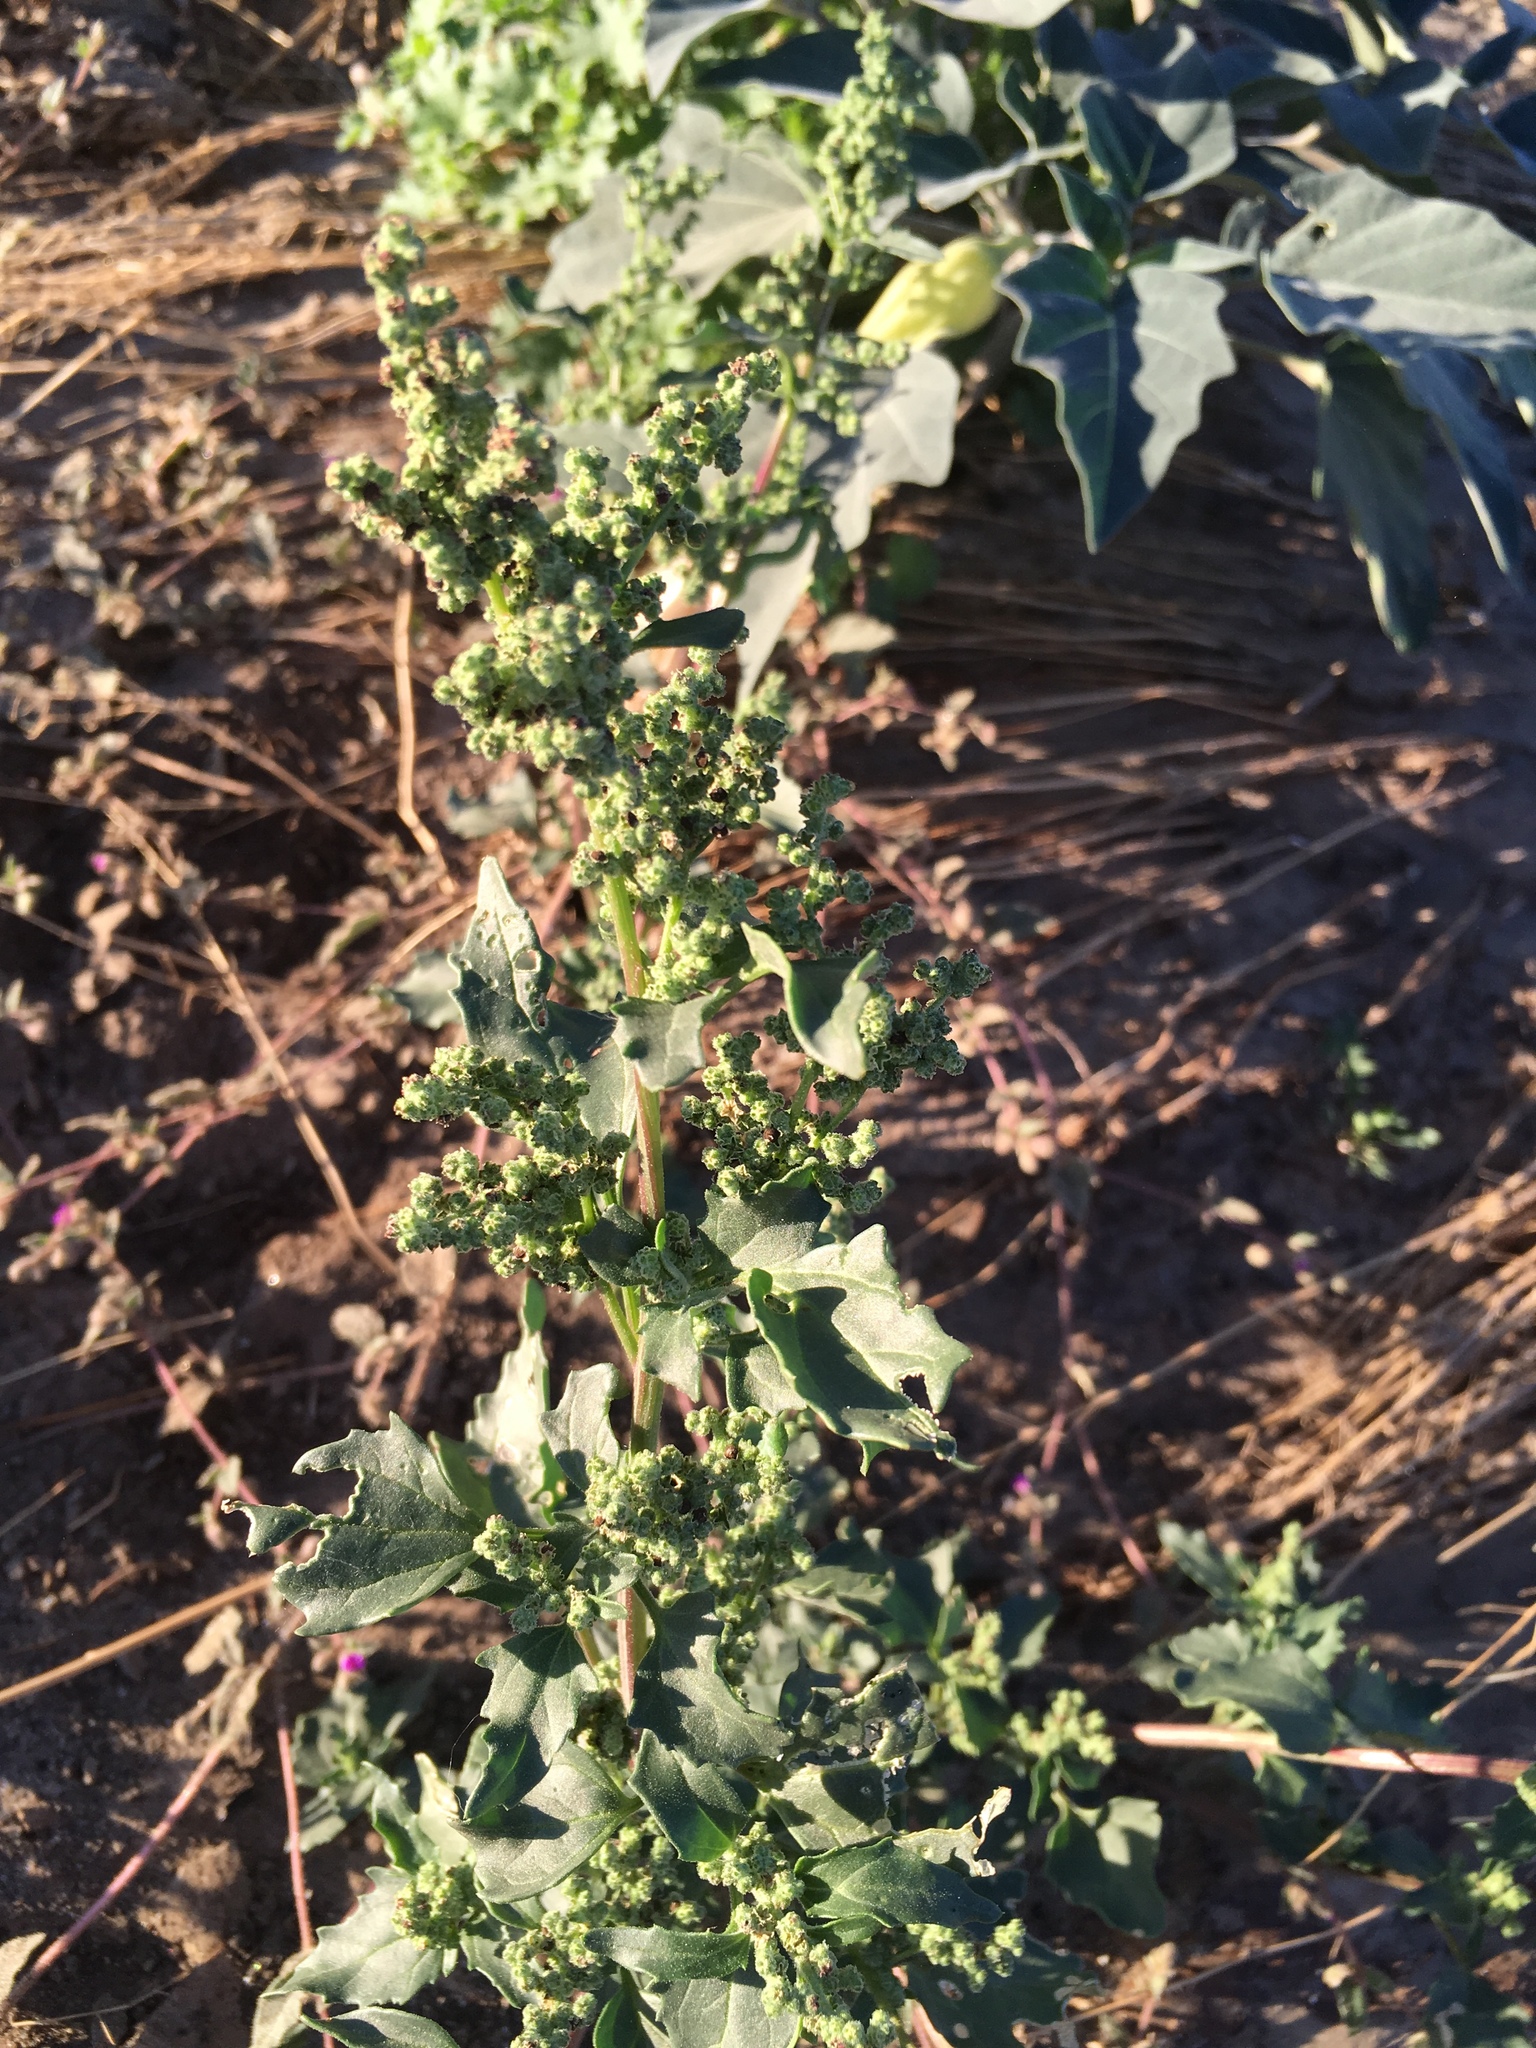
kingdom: Plantae
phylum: Tracheophyta
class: Magnoliopsida
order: Caryophyllales
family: Amaranthaceae
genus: Chenopodiastrum
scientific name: Chenopodiastrum murale
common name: Sowbane
